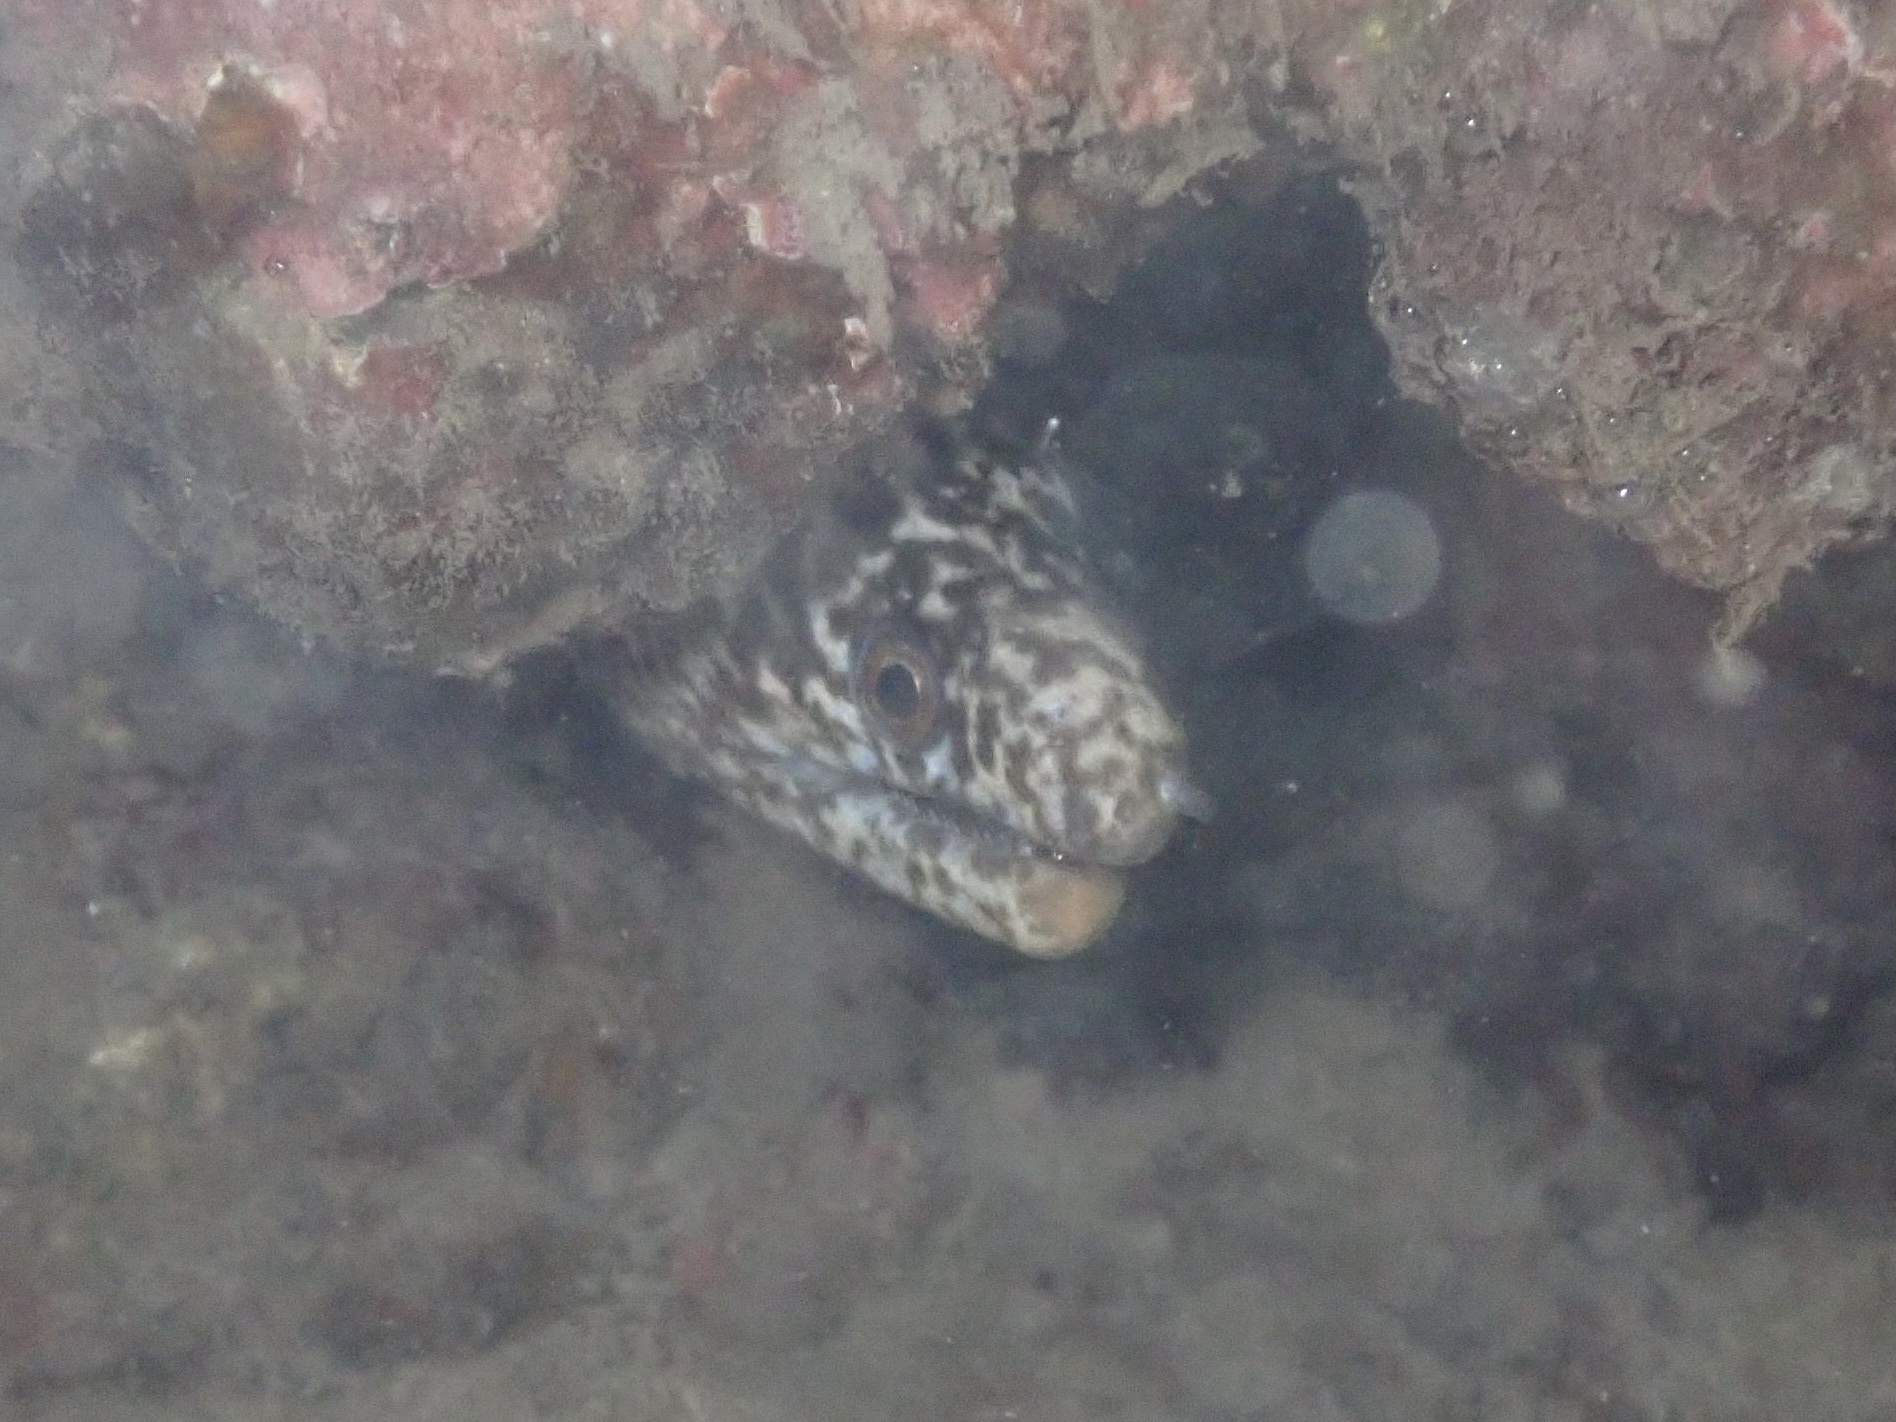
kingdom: Animalia
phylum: Chordata
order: Anguilliformes
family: Muraenidae
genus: Gymnothorax
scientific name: Gymnothorax eurostus
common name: Stout moray
